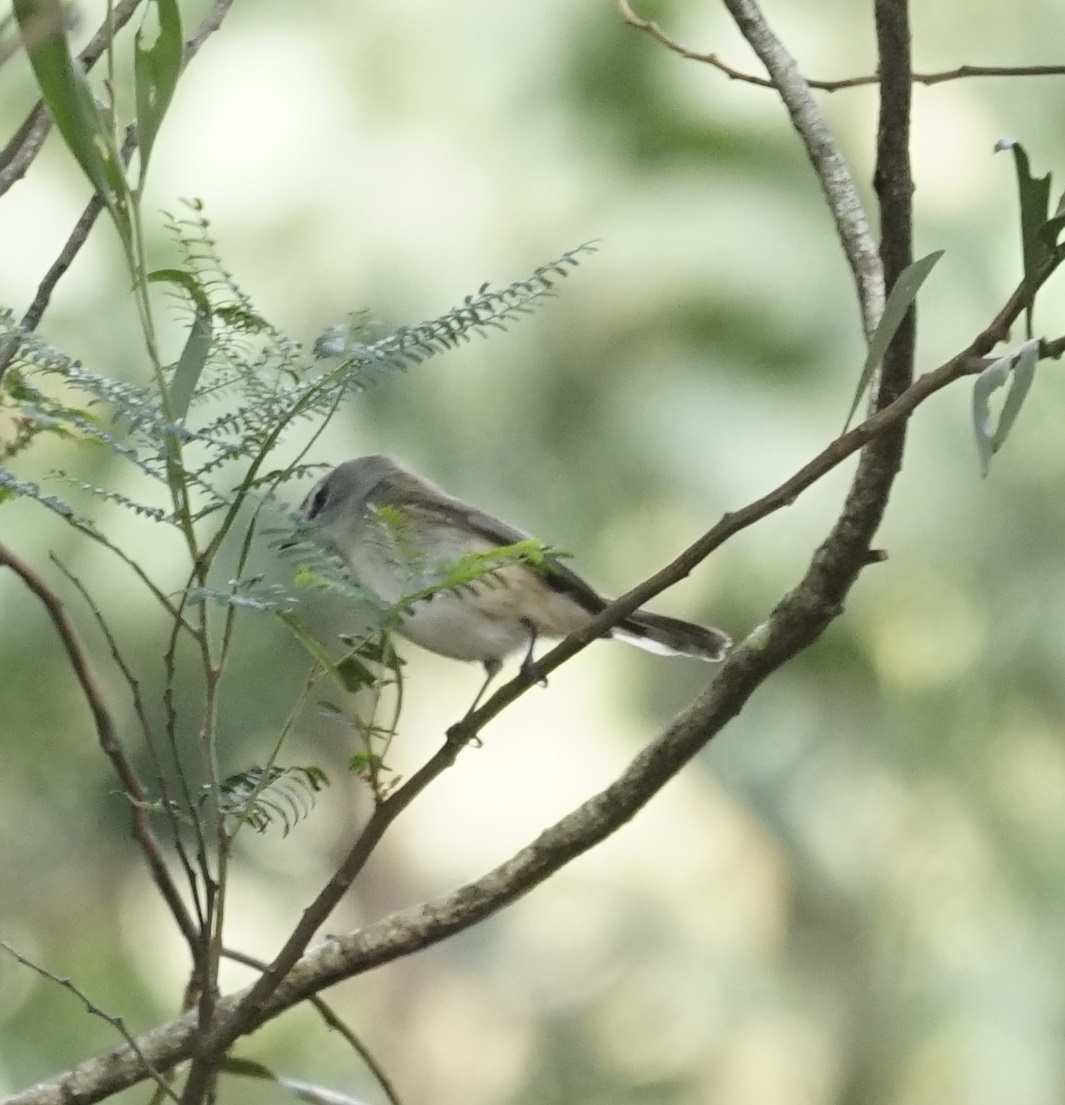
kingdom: Animalia
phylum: Chordata
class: Aves
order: Passeriformes
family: Acanthizidae
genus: Gerygone
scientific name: Gerygone mouki
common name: Brown gerygone
